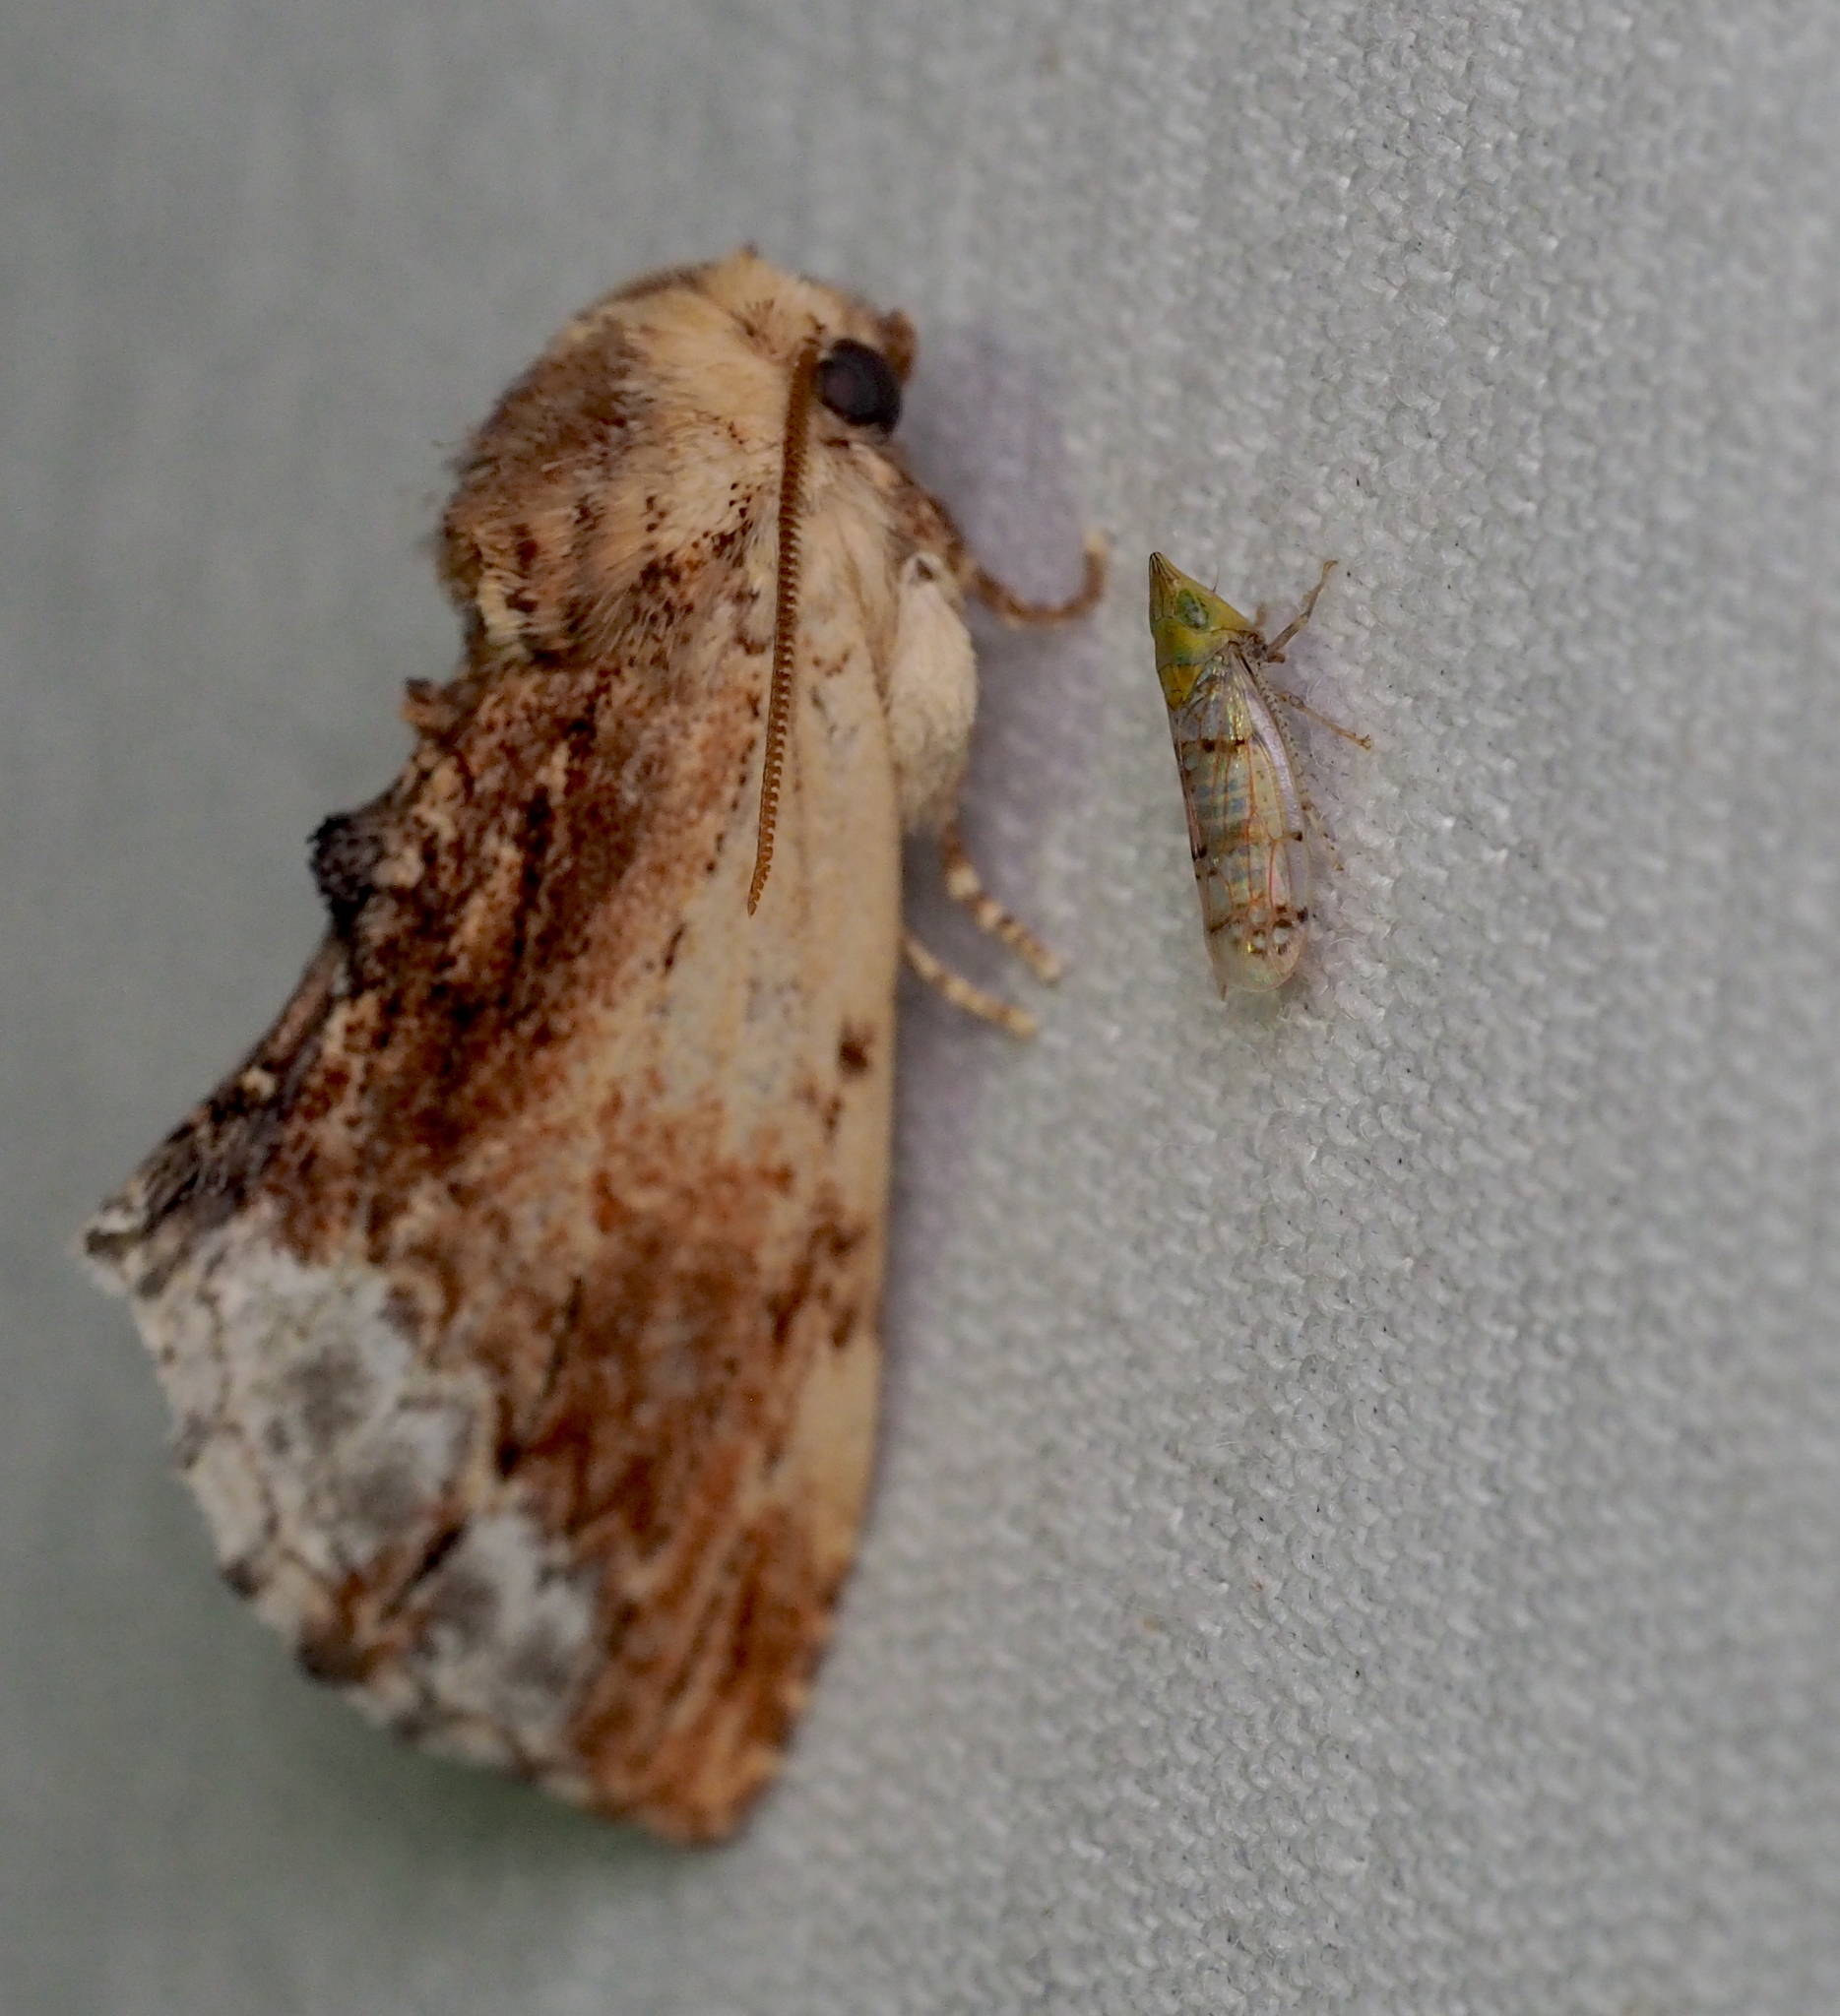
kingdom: Animalia
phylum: Arthropoda
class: Insecta
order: Hemiptera
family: Cicadellidae
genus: Japananus
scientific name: Japananus hyalinus
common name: The japanese maple leafhopper
